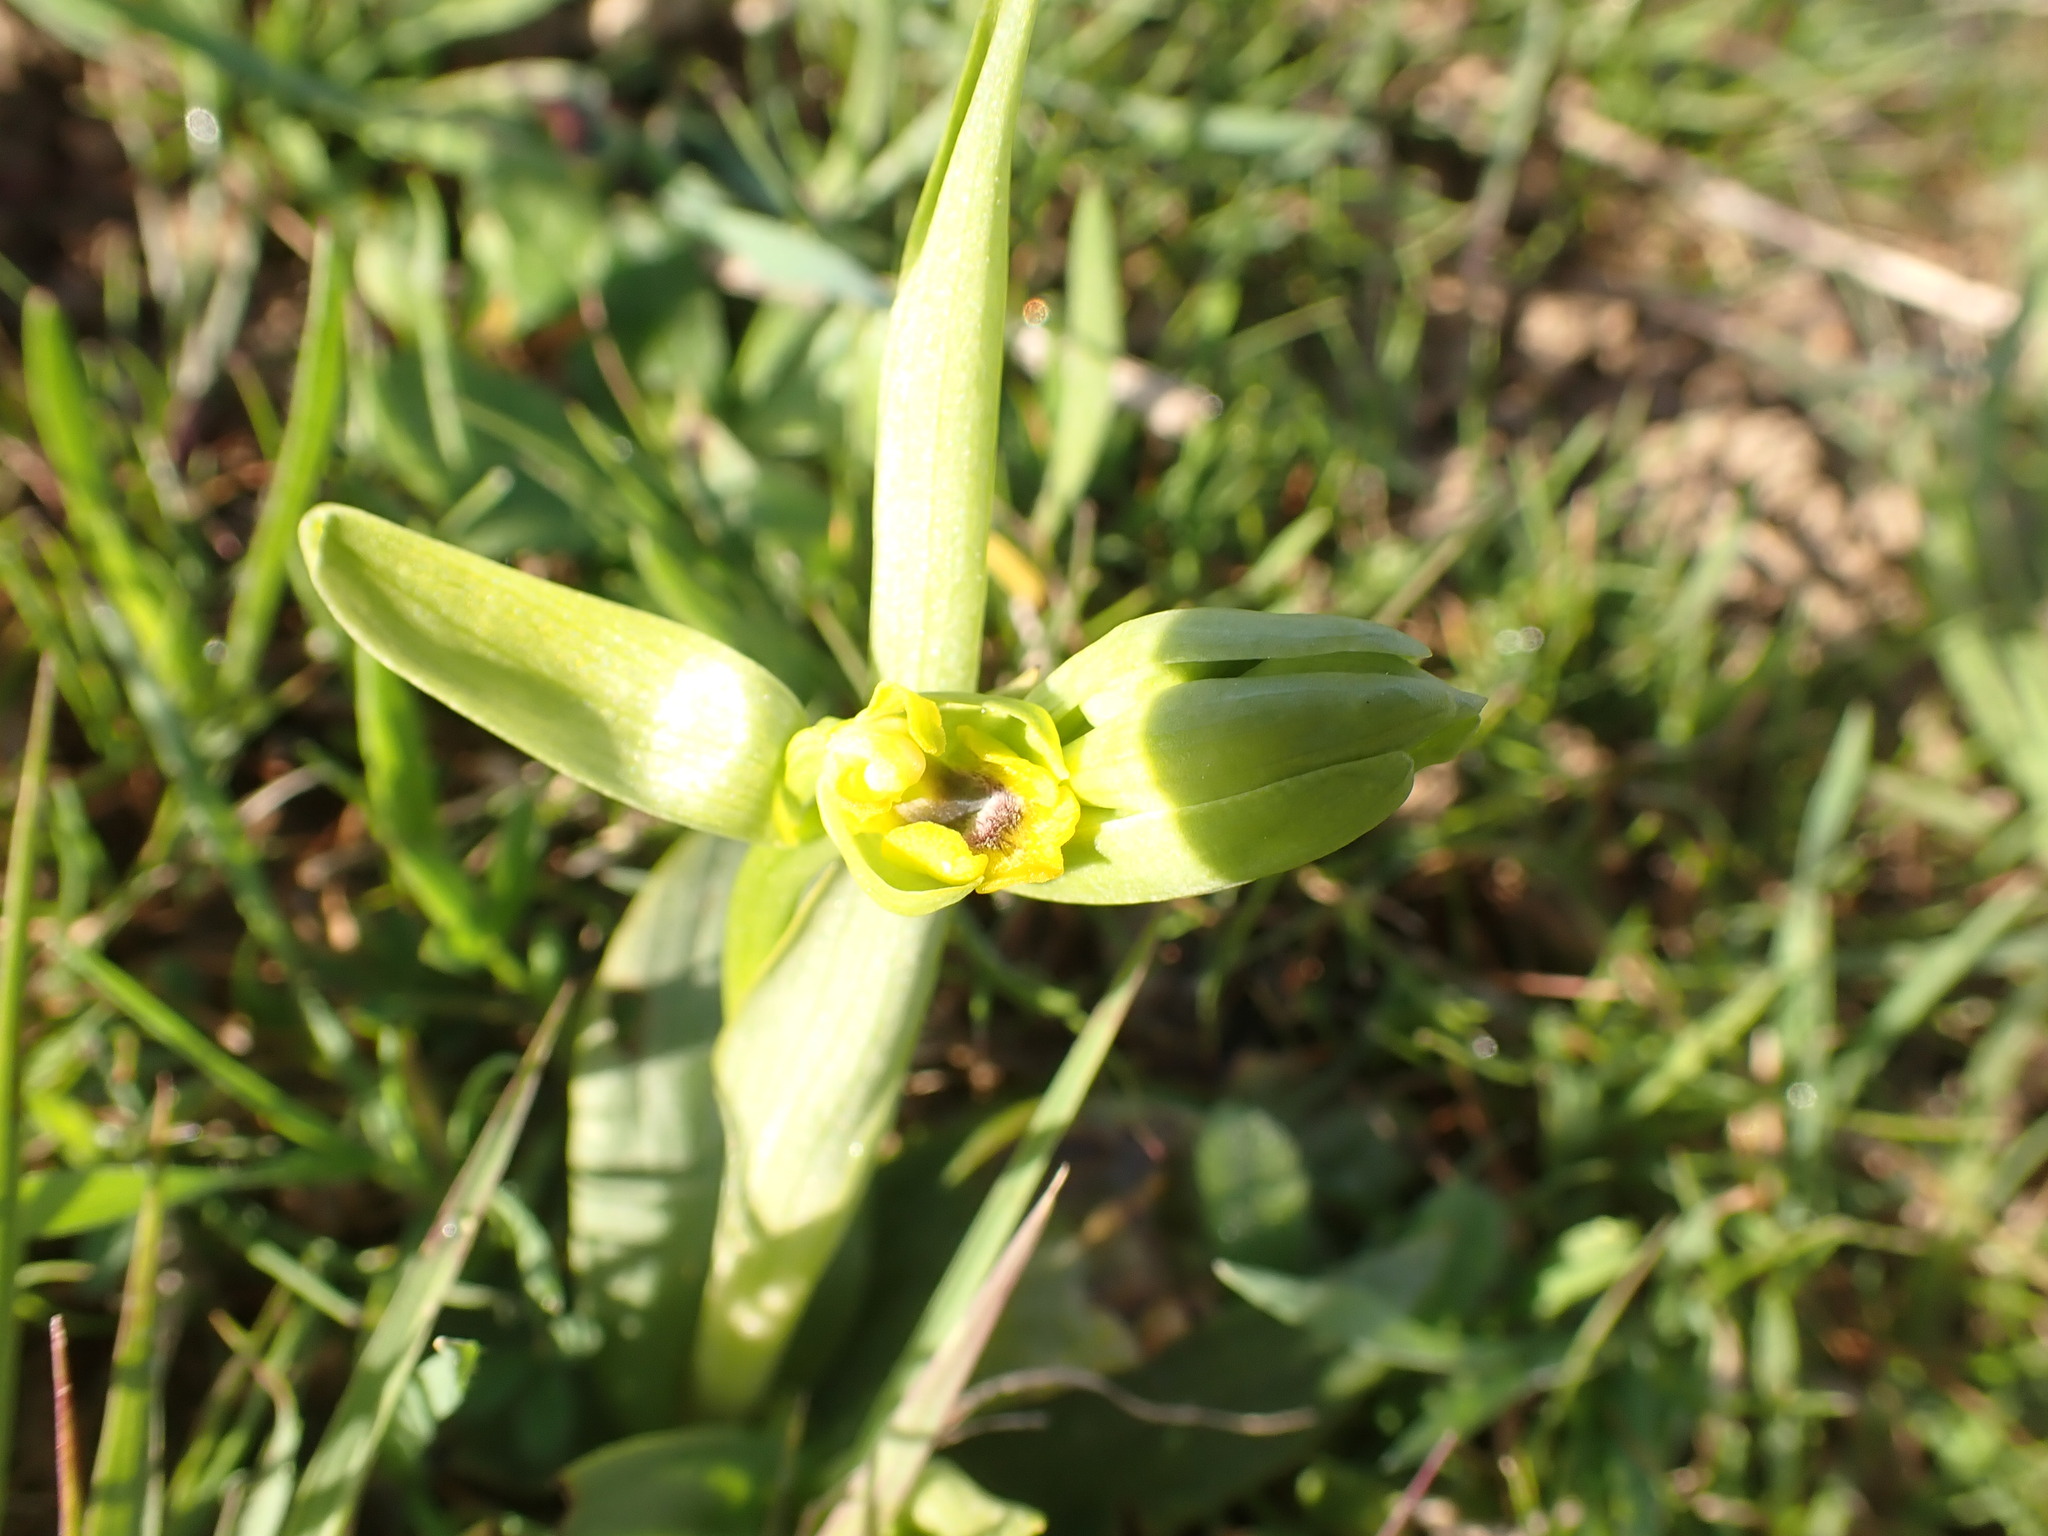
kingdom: Plantae
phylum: Tracheophyta
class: Liliopsida
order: Asparagales
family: Orchidaceae
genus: Ophrys
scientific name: Ophrys lutea
